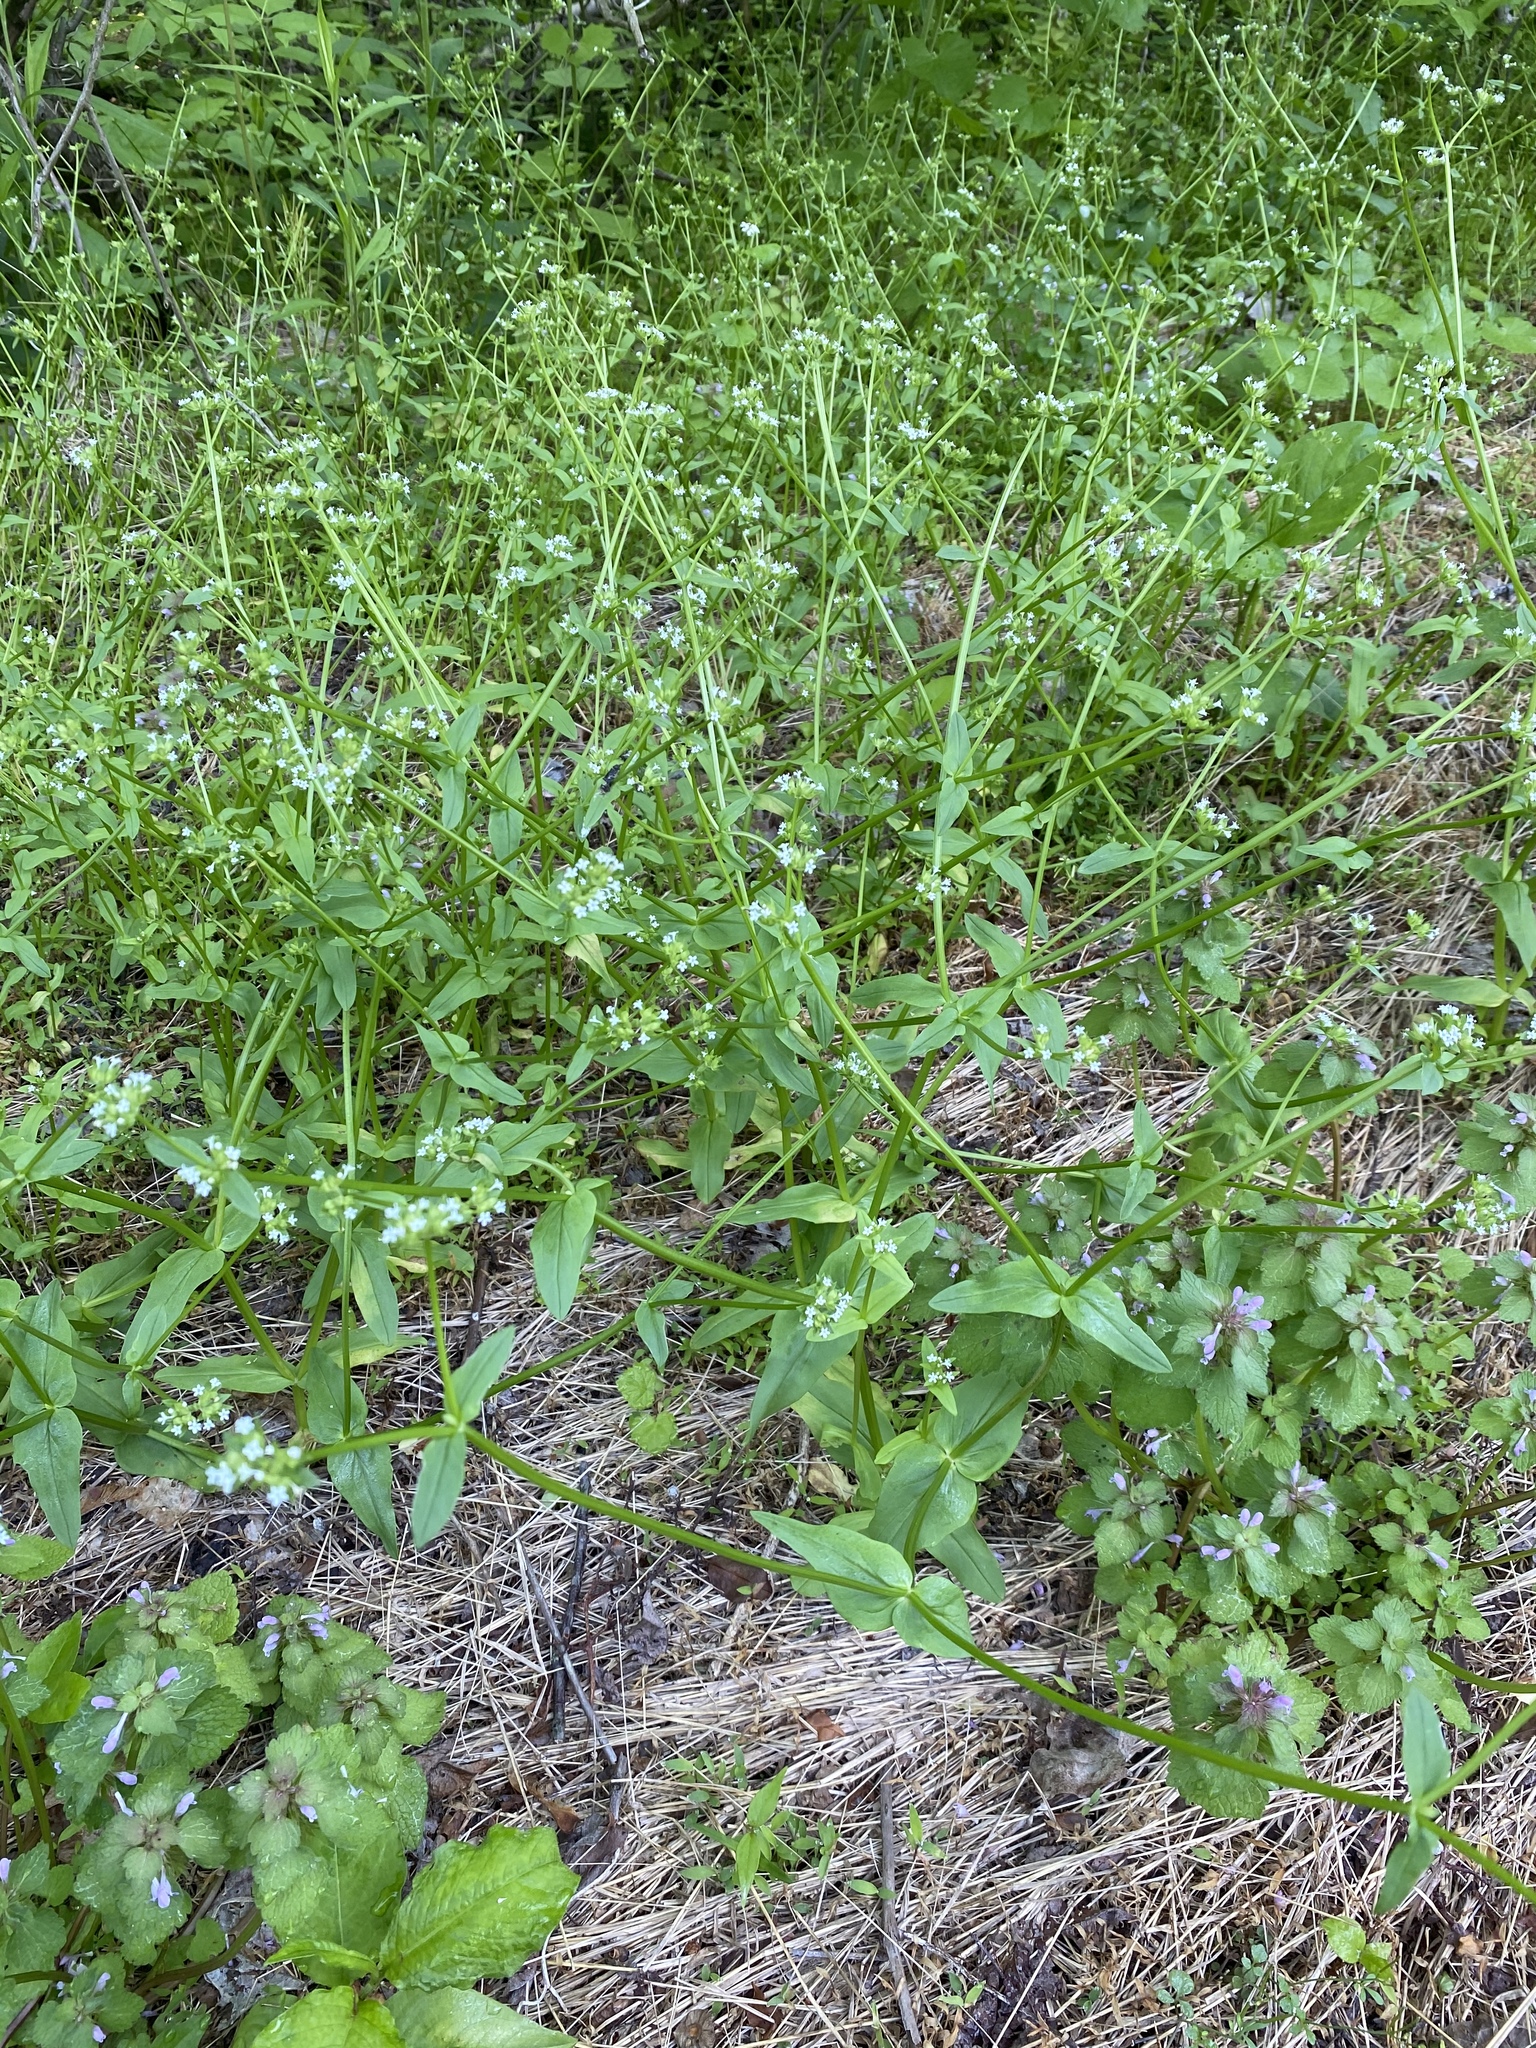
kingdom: Plantae
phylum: Tracheophyta
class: Magnoliopsida
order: Dipsacales
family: Caprifoliaceae
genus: Valerianella
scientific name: Valerianella locusta
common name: Common cornsalad
